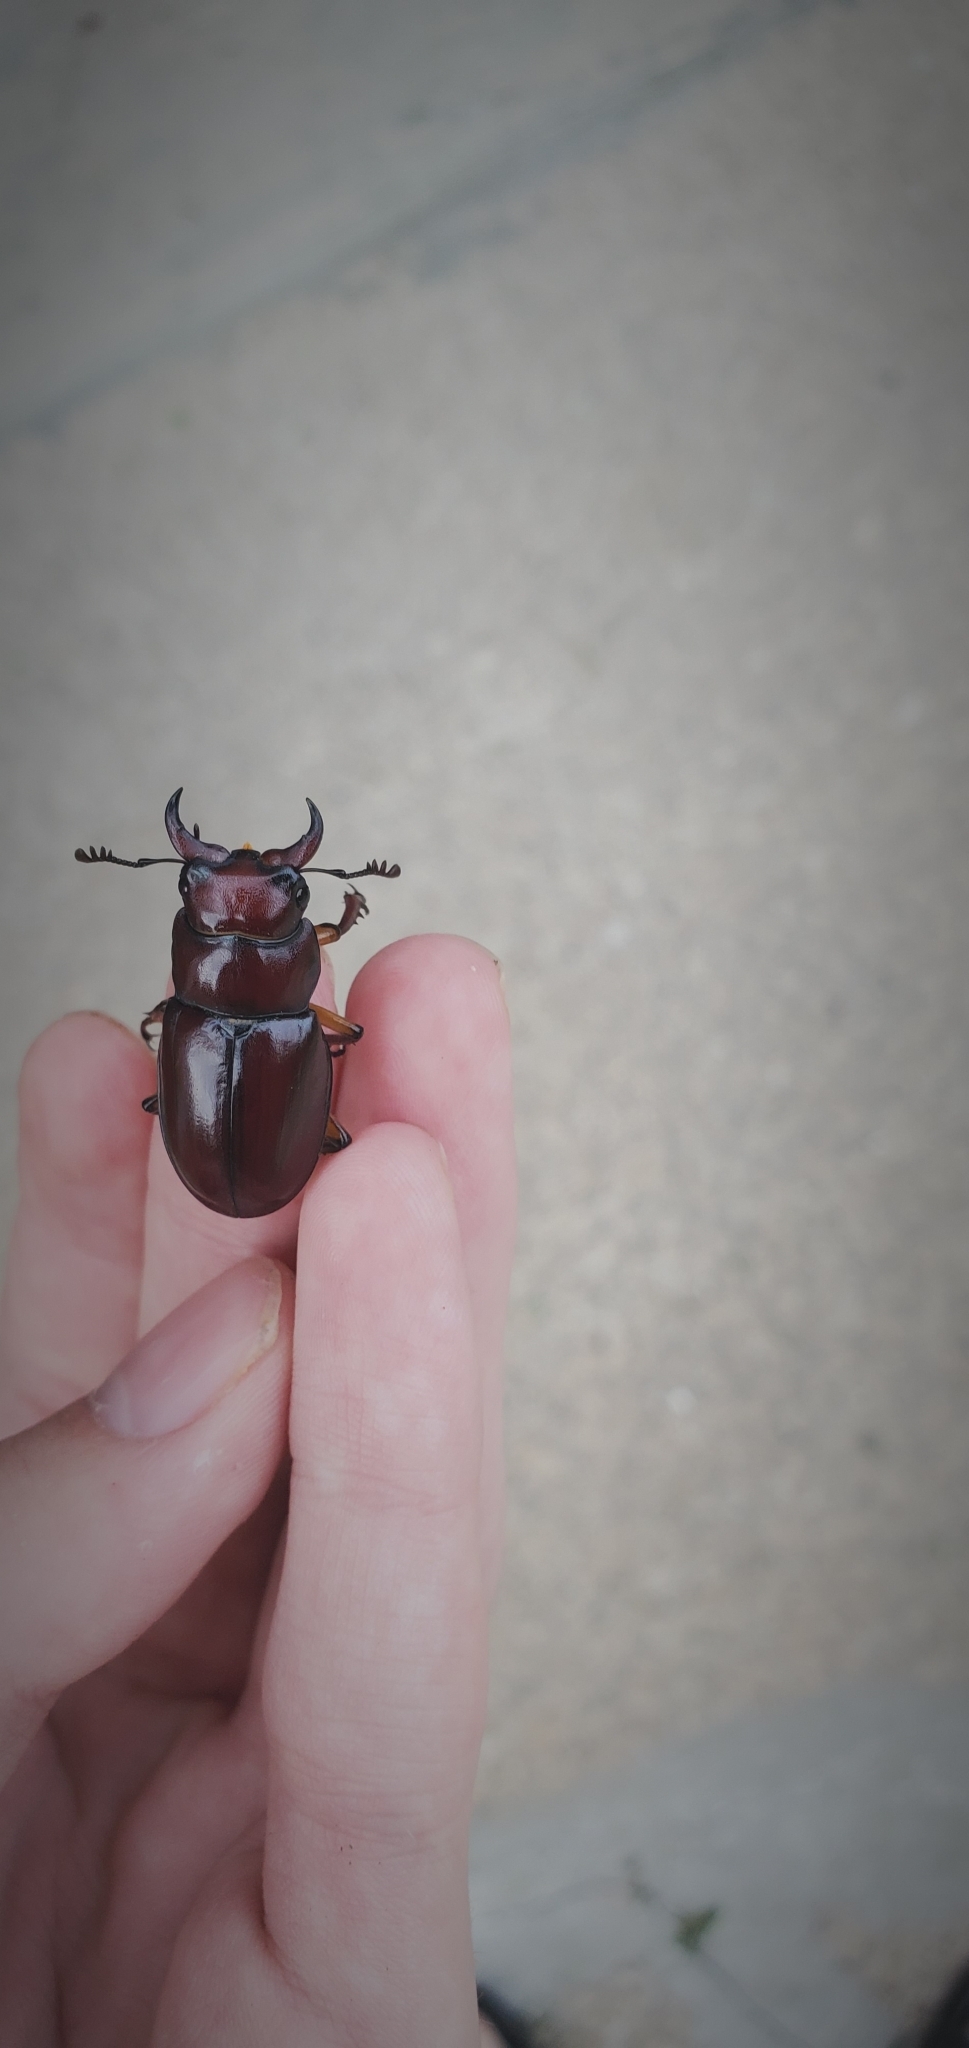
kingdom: Animalia
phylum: Arthropoda
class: Insecta
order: Coleoptera
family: Lucanidae
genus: Lucanus
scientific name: Lucanus capreolus
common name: Stag beetle
